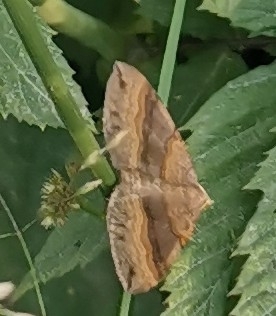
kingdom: Animalia
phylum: Arthropoda
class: Insecta
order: Lepidoptera
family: Geometridae
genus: Scotopteryx
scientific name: Scotopteryx chenopodiata
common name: Shaded broad-bar
